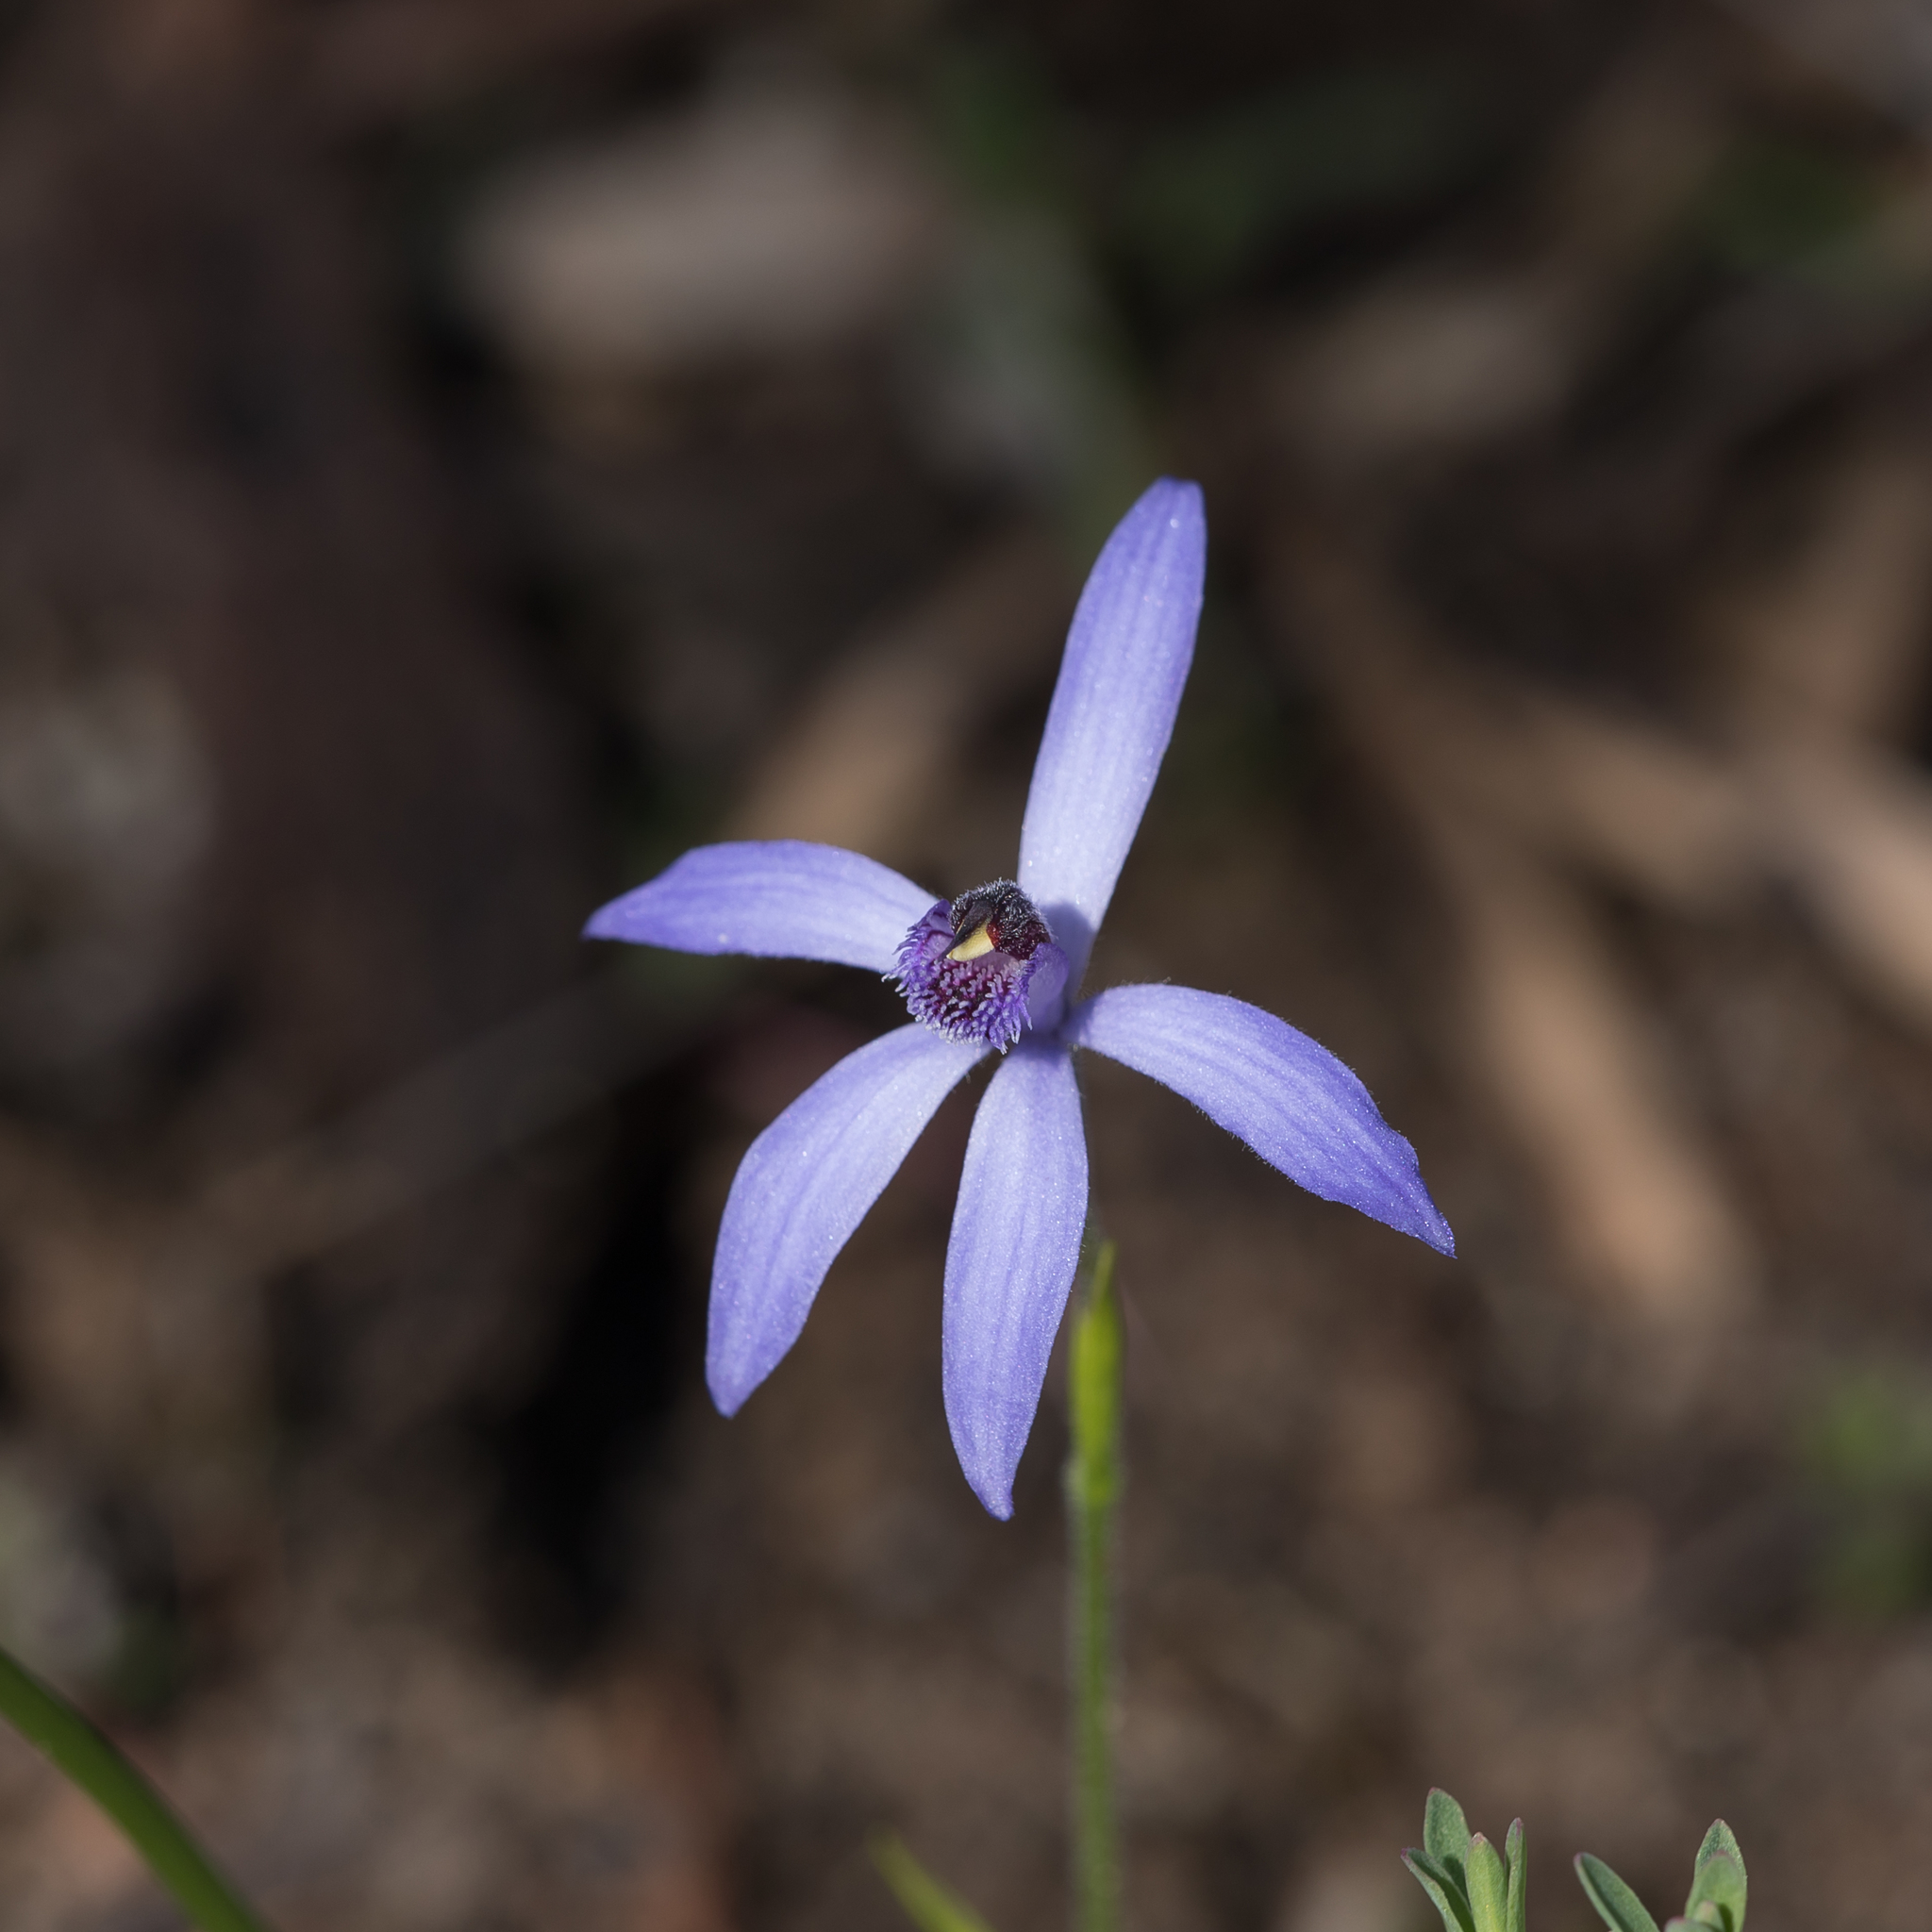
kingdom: Plantae
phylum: Tracheophyta
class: Liliopsida
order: Asparagales
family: Orchidaceae
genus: Pheladenia
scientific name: Pheladenia deformis
